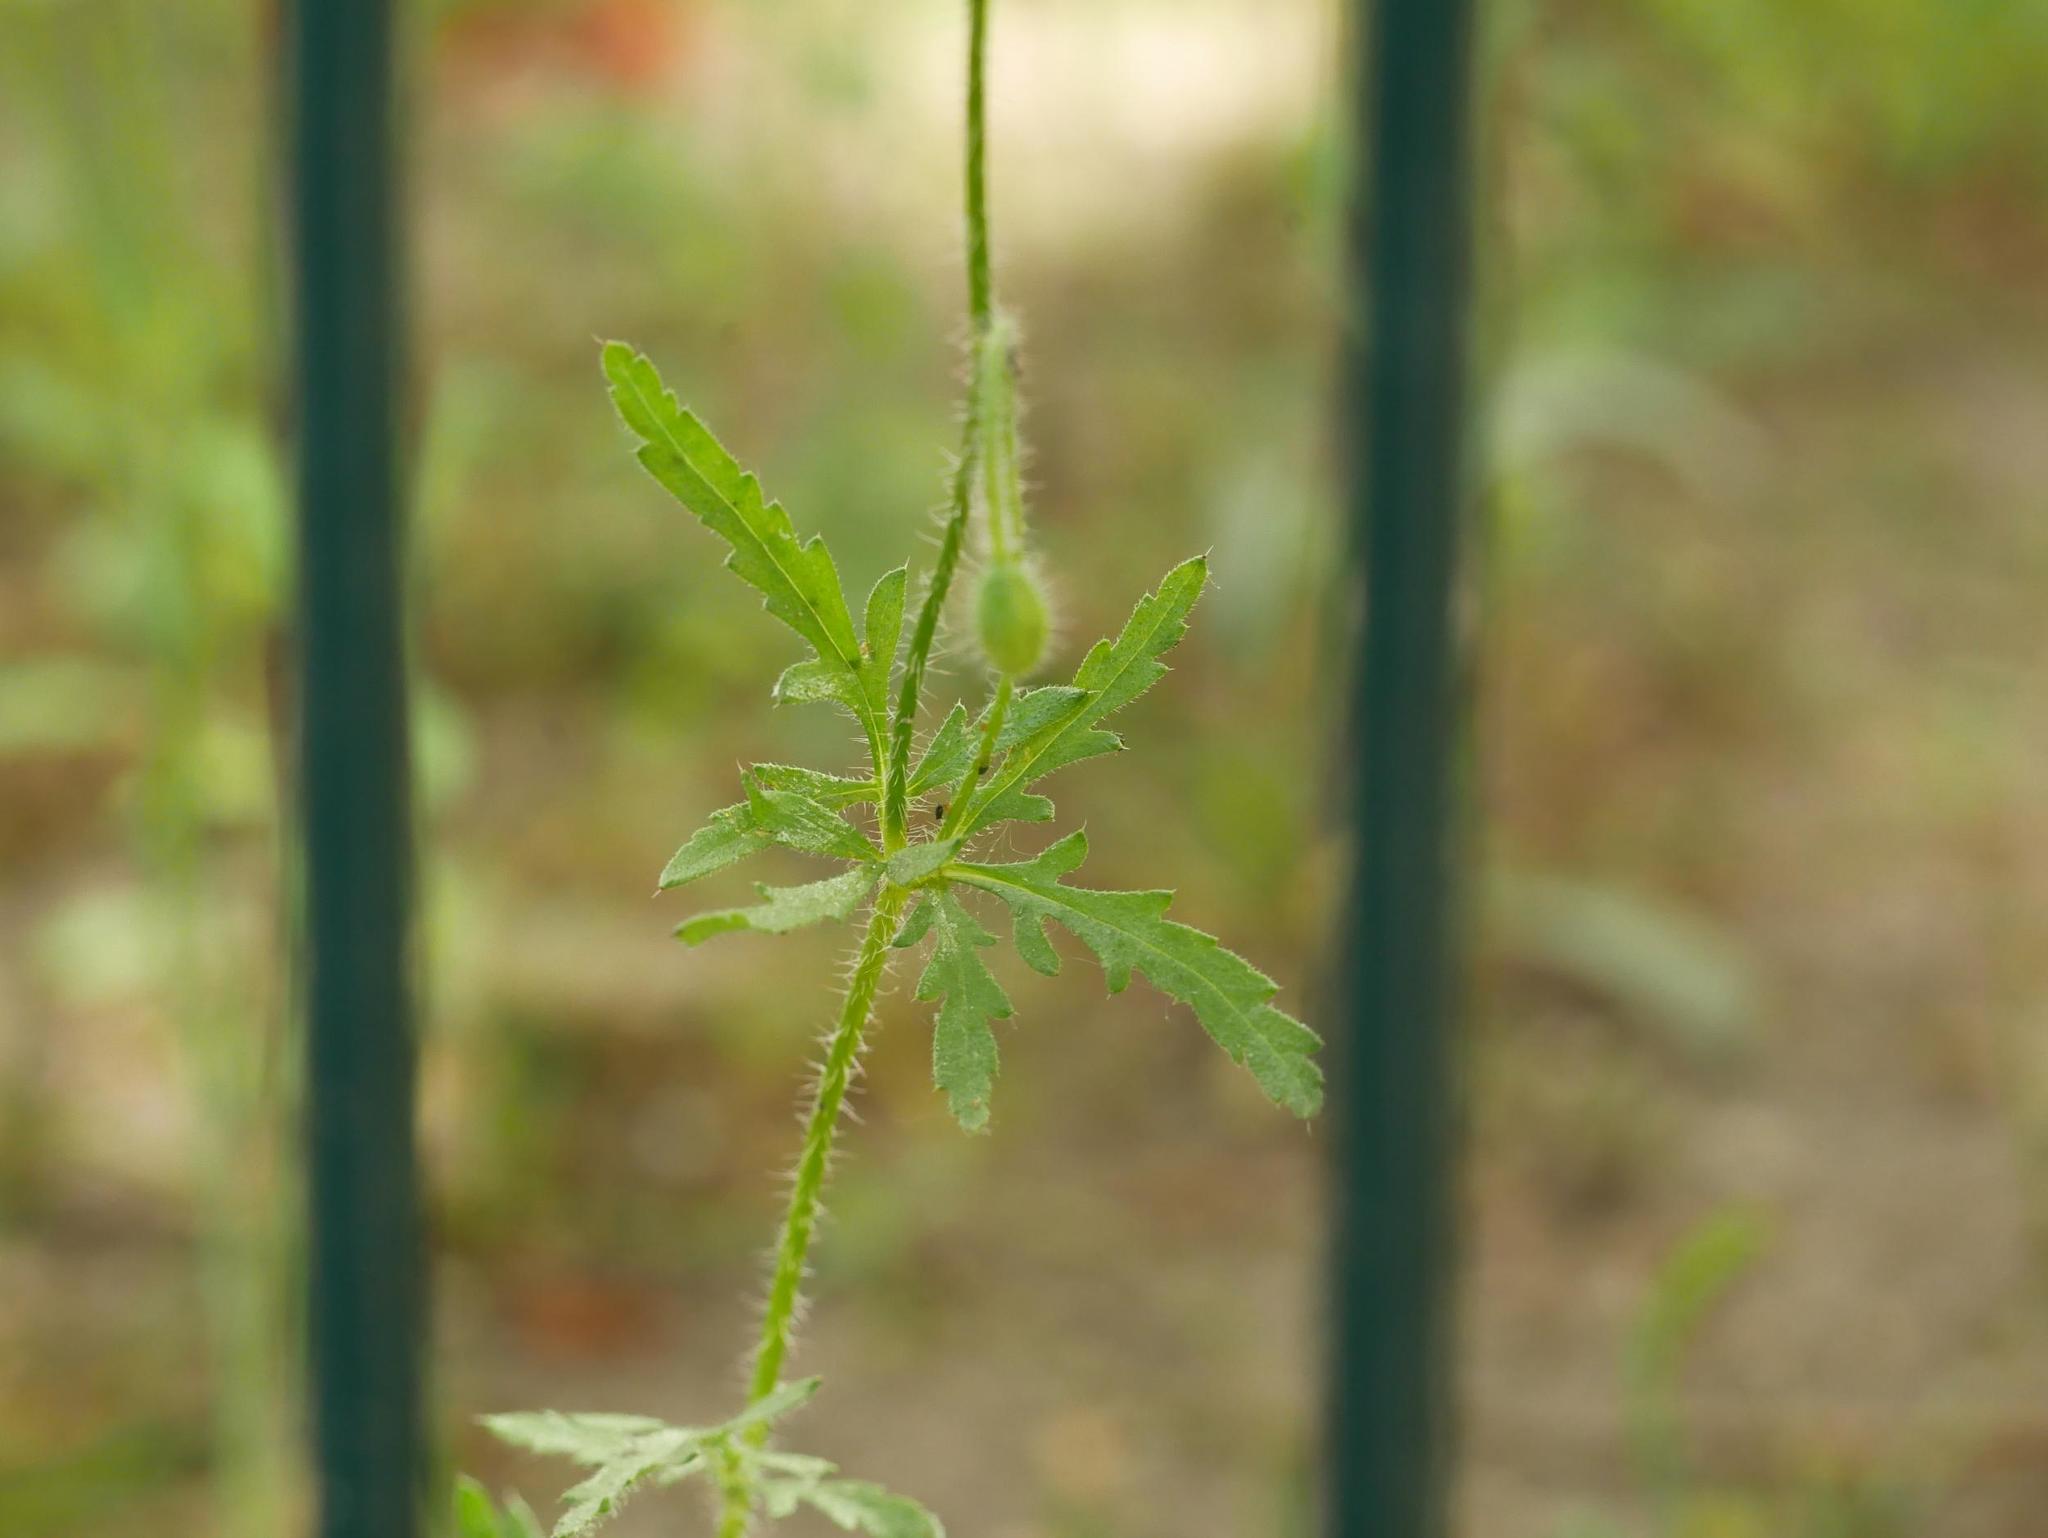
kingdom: Plantae
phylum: Tracheophyta
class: Magnoliopsida
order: Ranunculales
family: Papaveraceae
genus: Papaver
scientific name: Papaver dubium
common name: Long-headed poppy
